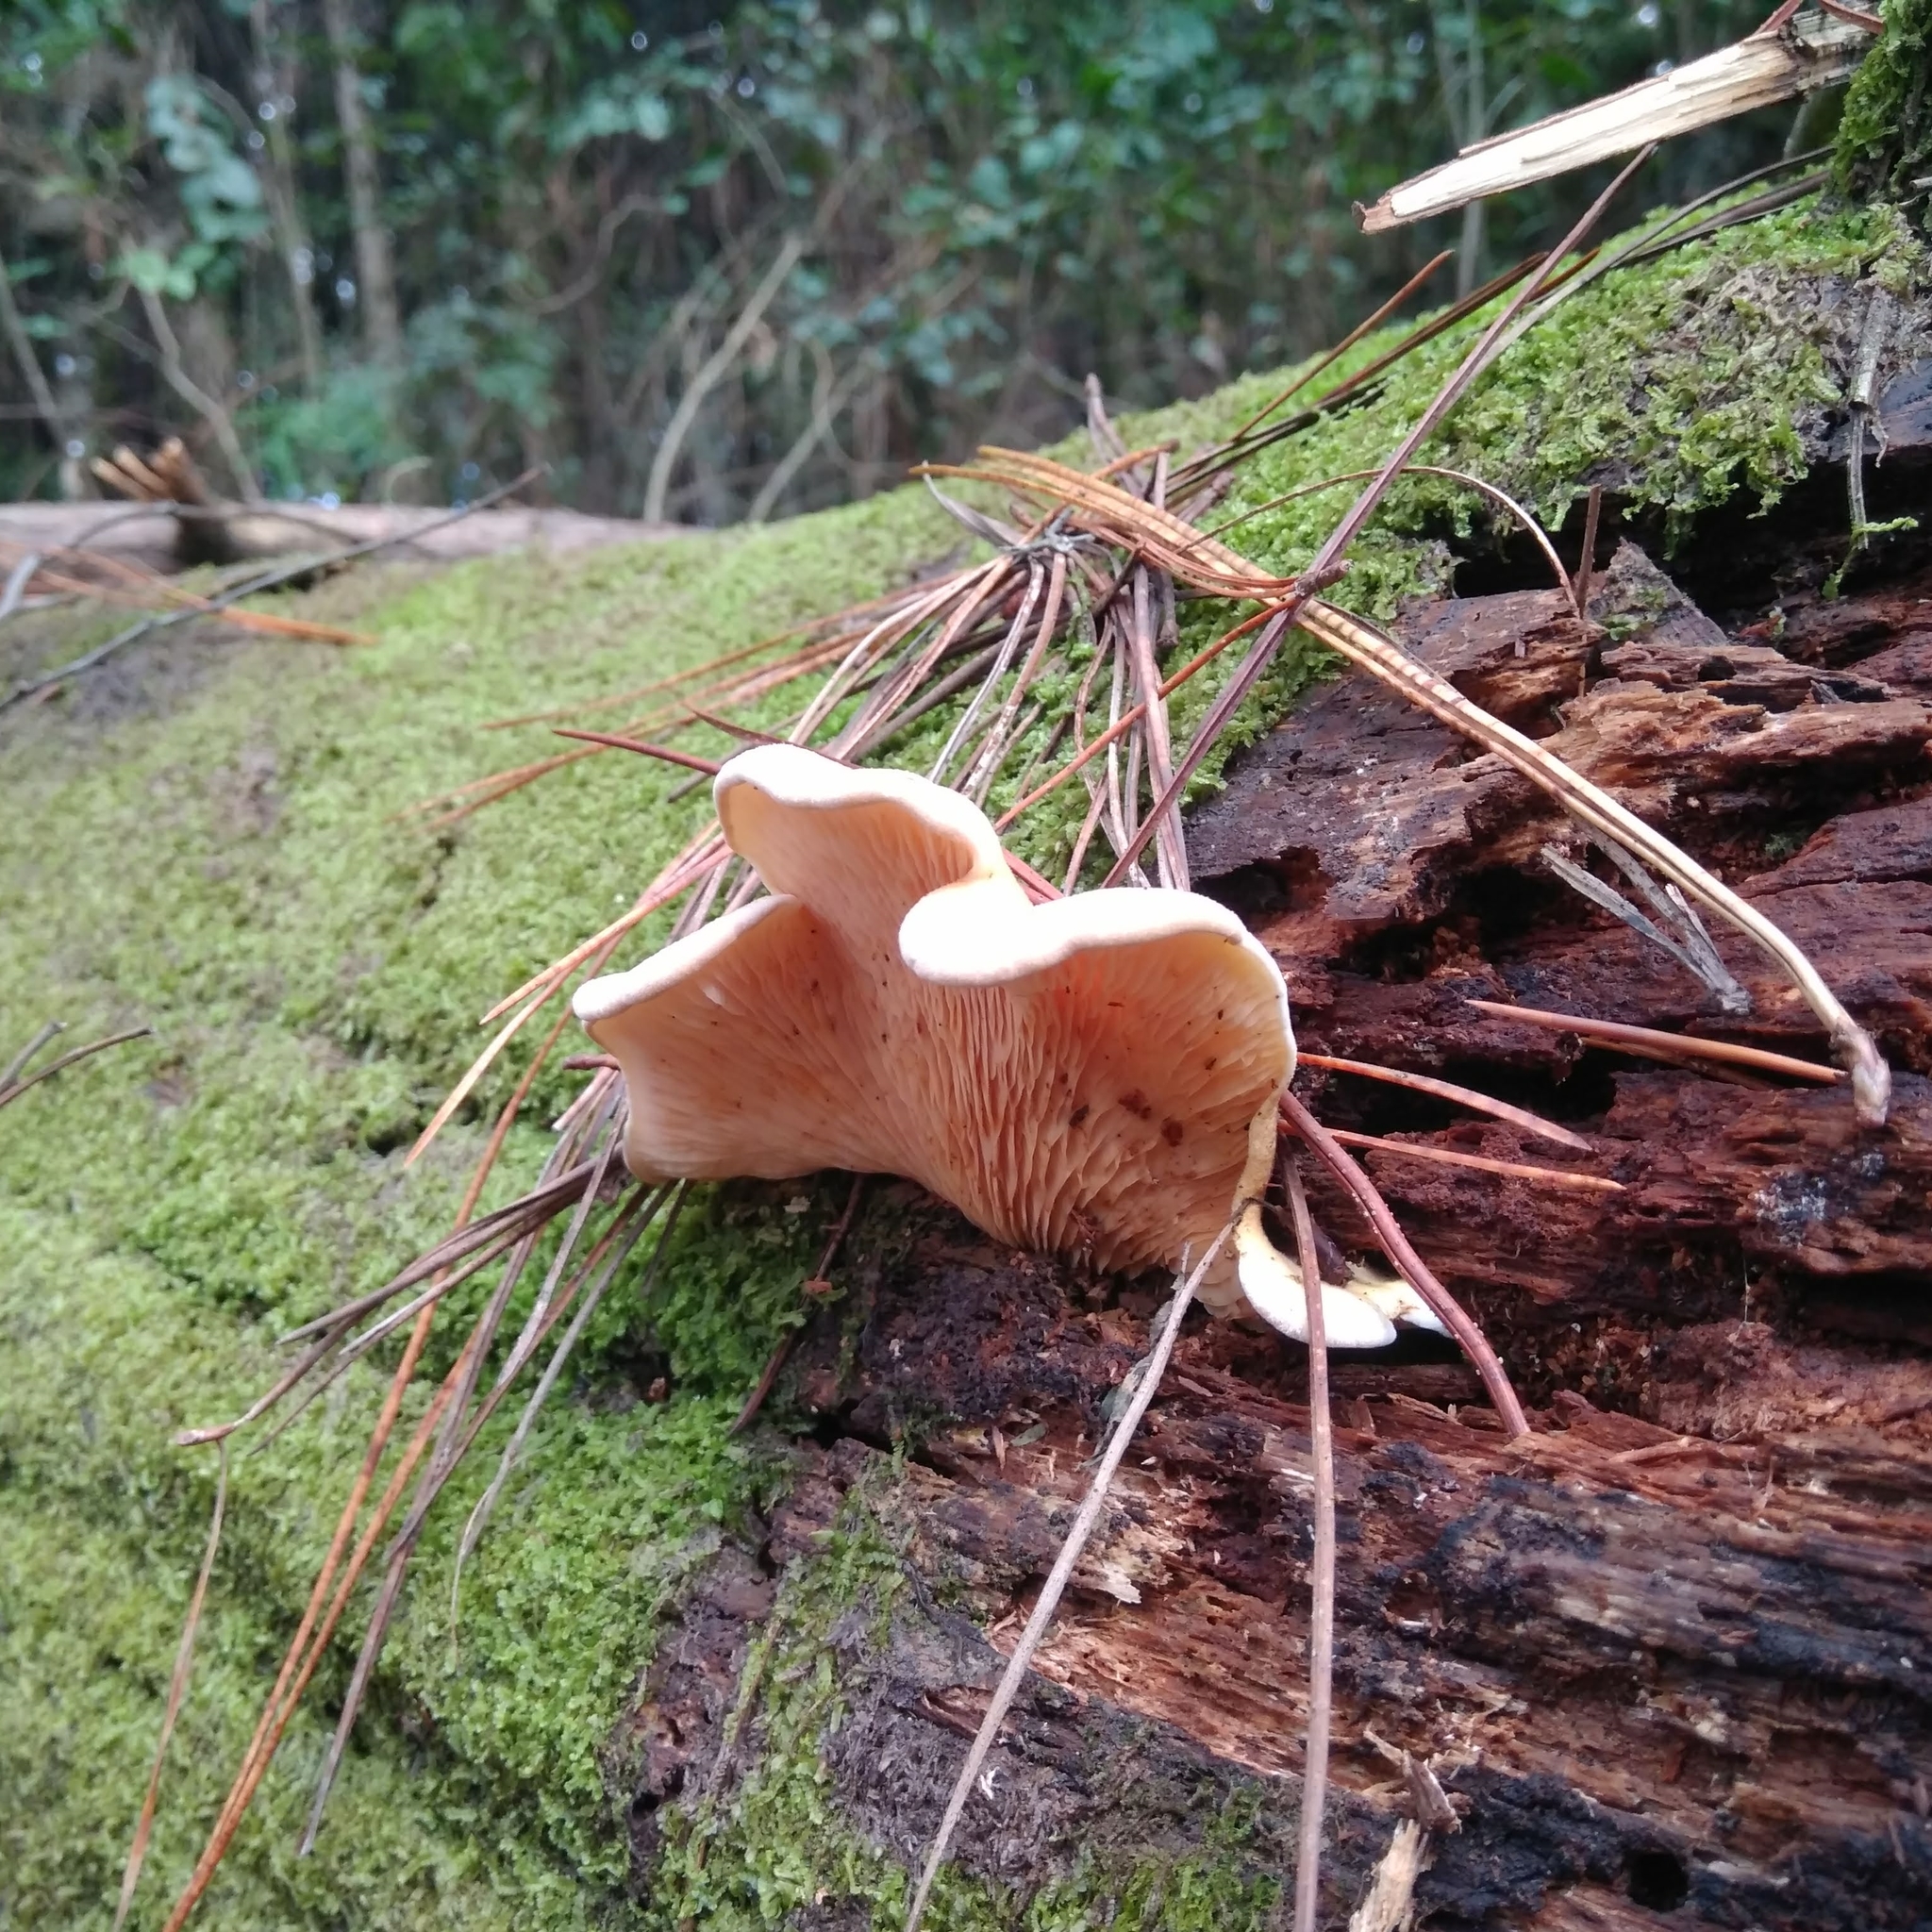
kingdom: Fungi
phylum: Basidiomycota
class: Agaricomycetes
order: Boletales
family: Tapinellaceae
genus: Tapinella
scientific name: Tapinella panuoides
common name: Oyster rollrim
